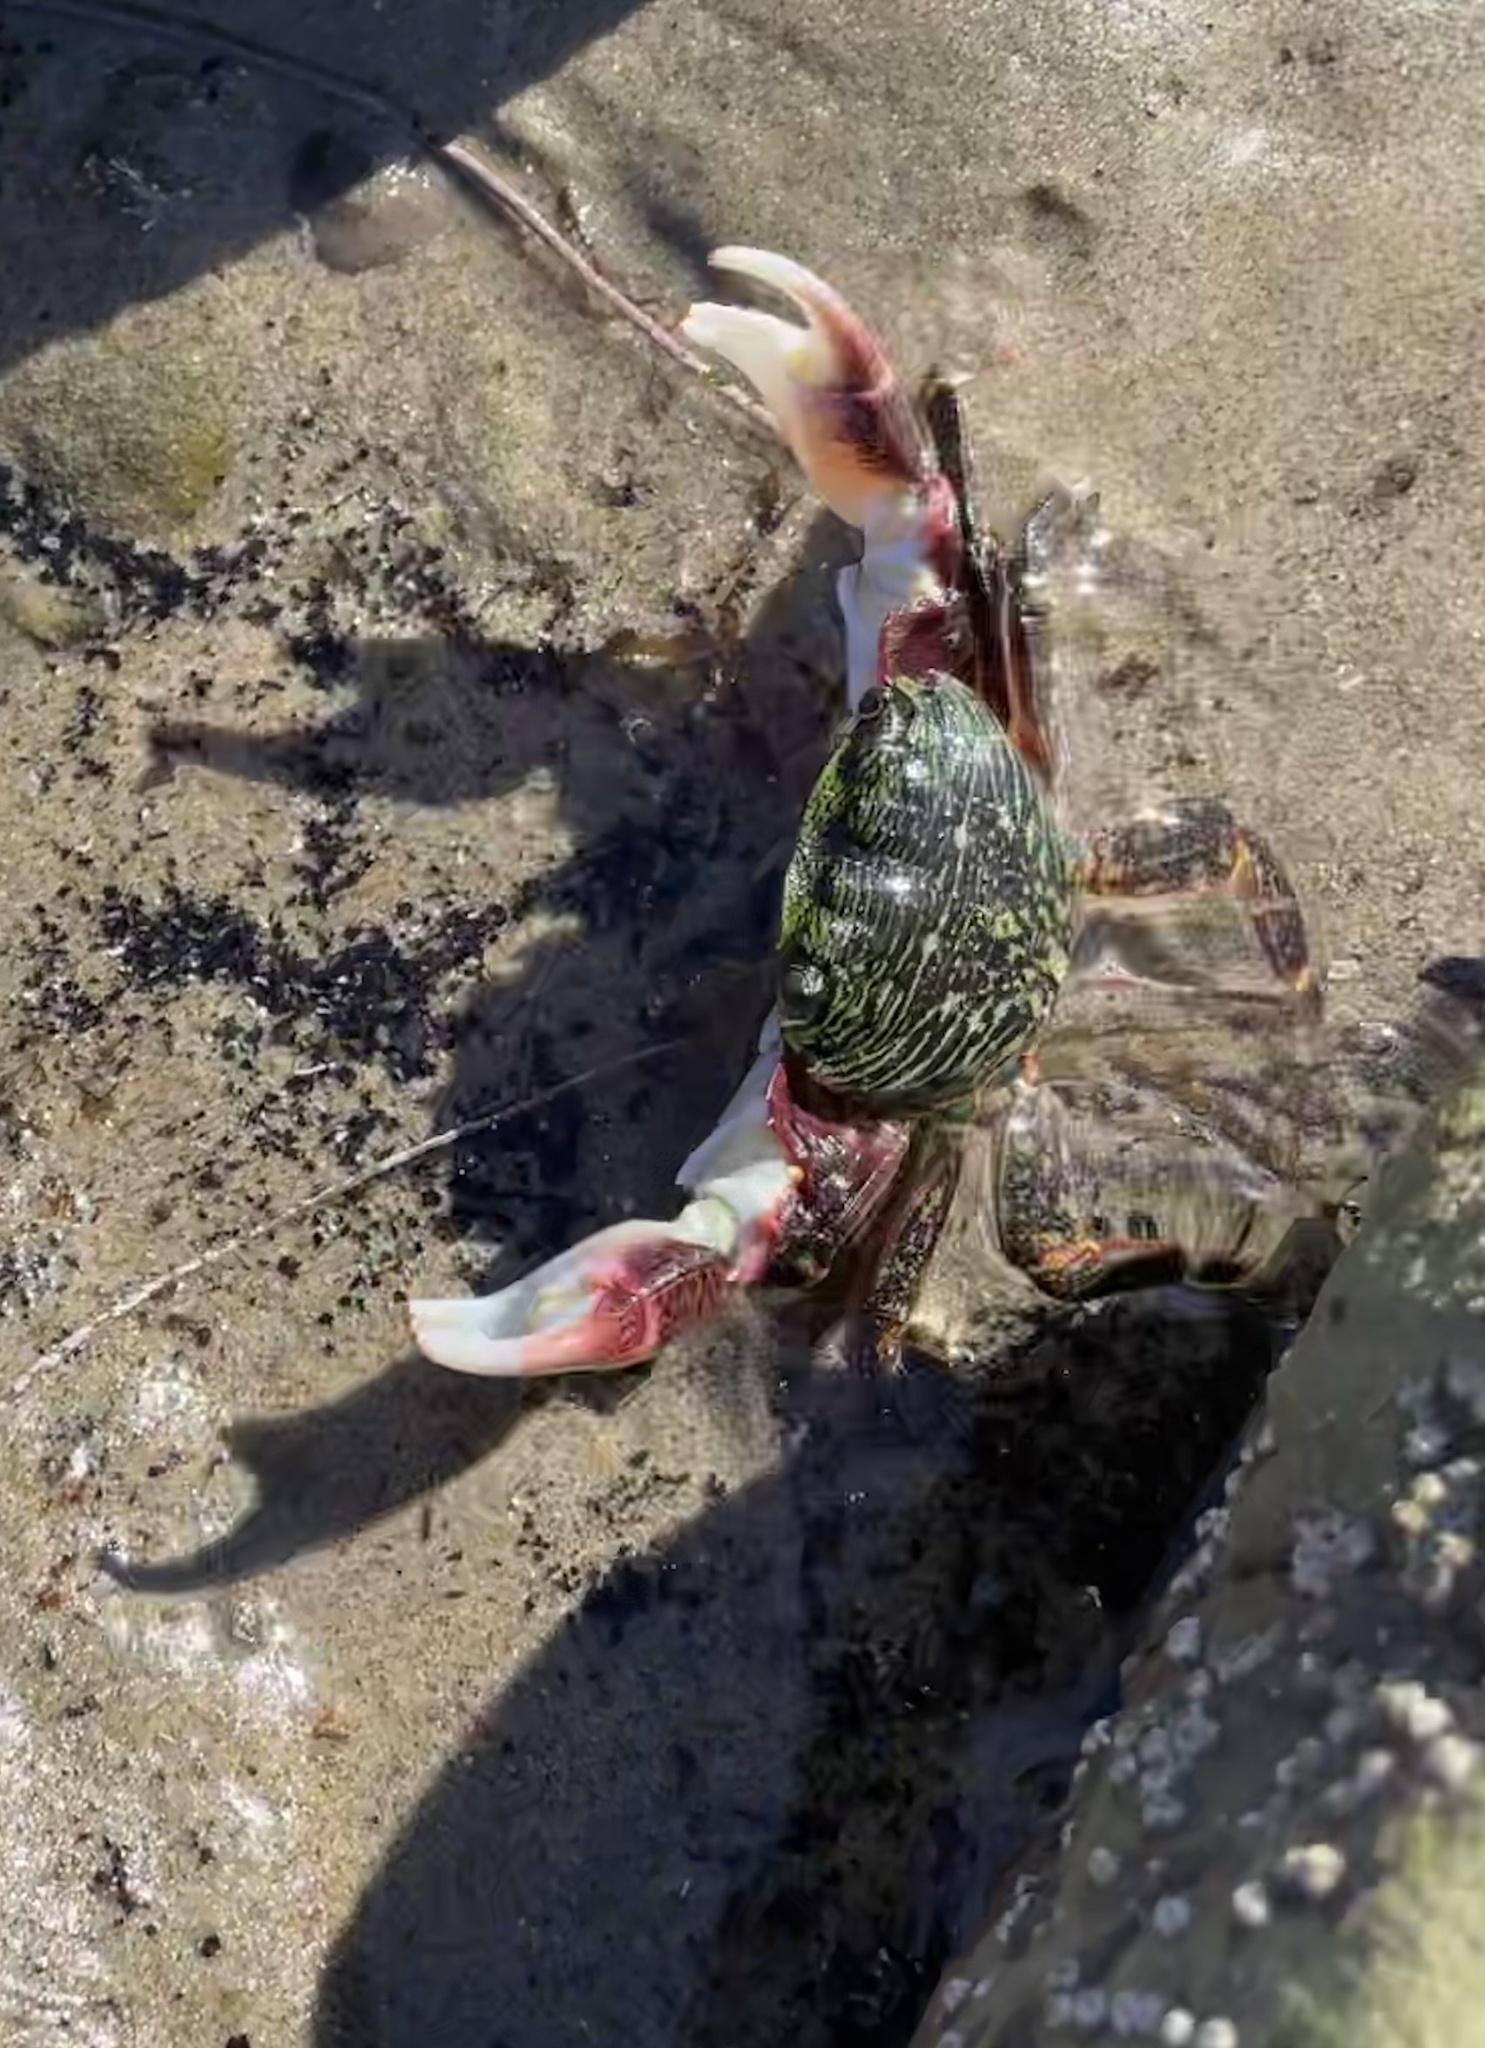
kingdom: Animalia
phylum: Arthropoda
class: Malacostraca
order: Decapoda
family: Grapsidae
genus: Pachygrapsus
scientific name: Pachygrapsus crassipes
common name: Striped shore crab
